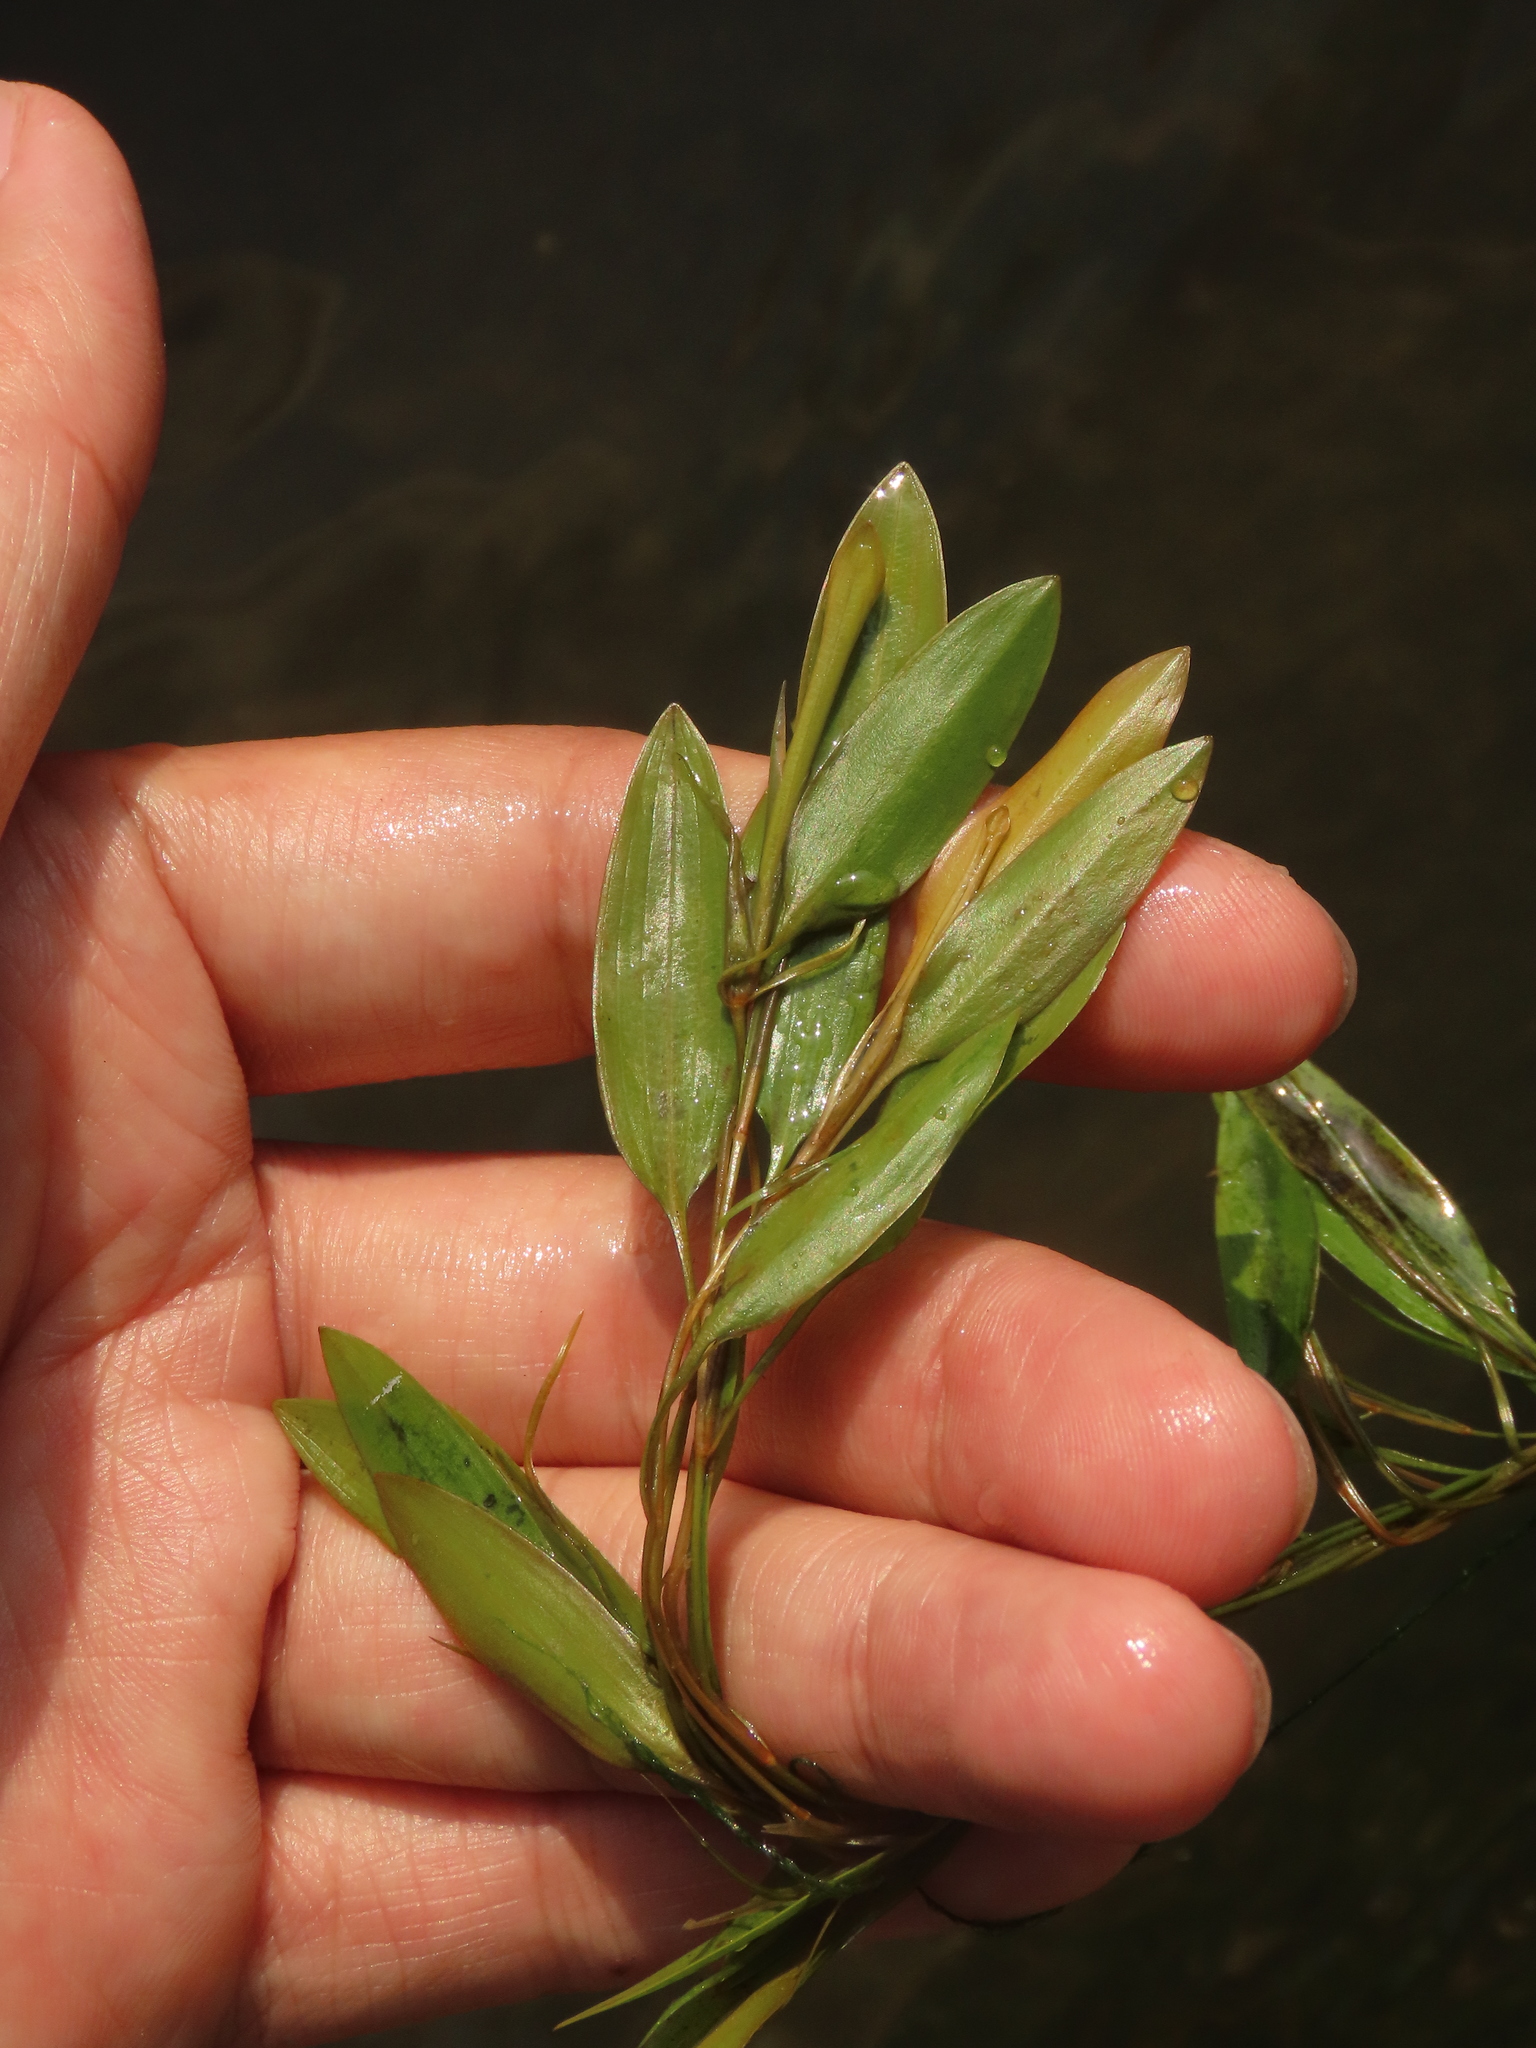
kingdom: Plantae
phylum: Tracheophyta
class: Liliopsida
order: Alismatales
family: Potamogetonaceae
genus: Potamogeton
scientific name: Potamogeton octandrus
